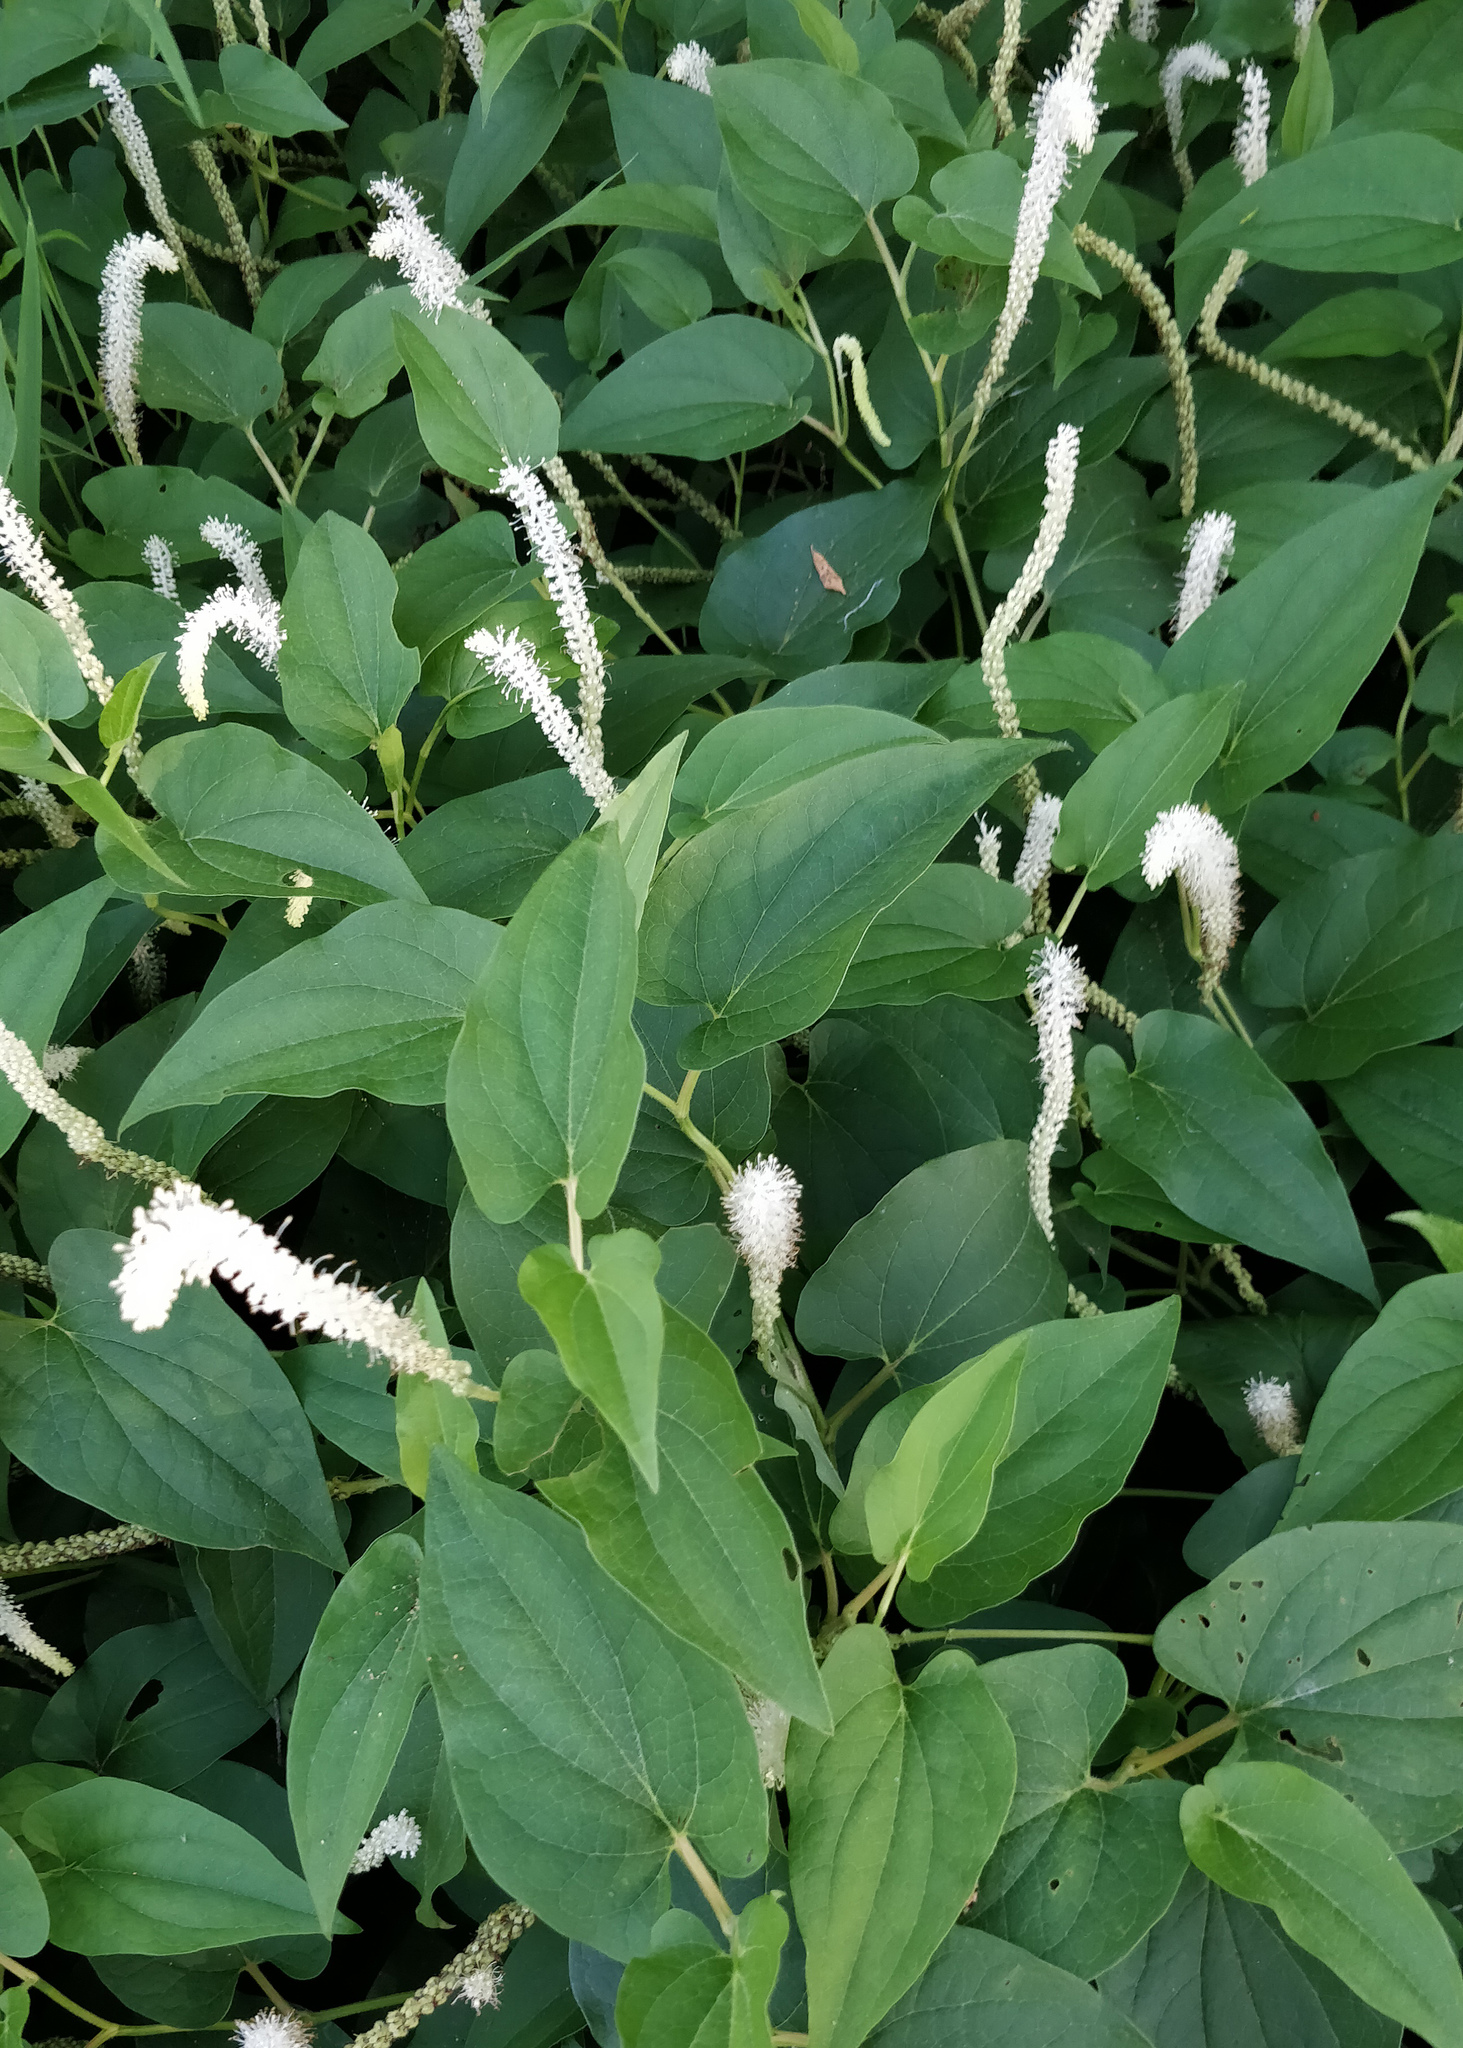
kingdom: Plantae
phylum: Tracheophyta
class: Magnoliopsida
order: Piperales
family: Saururaceae
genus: Saururus
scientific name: Saururus cernuus
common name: Lizard's-tail
